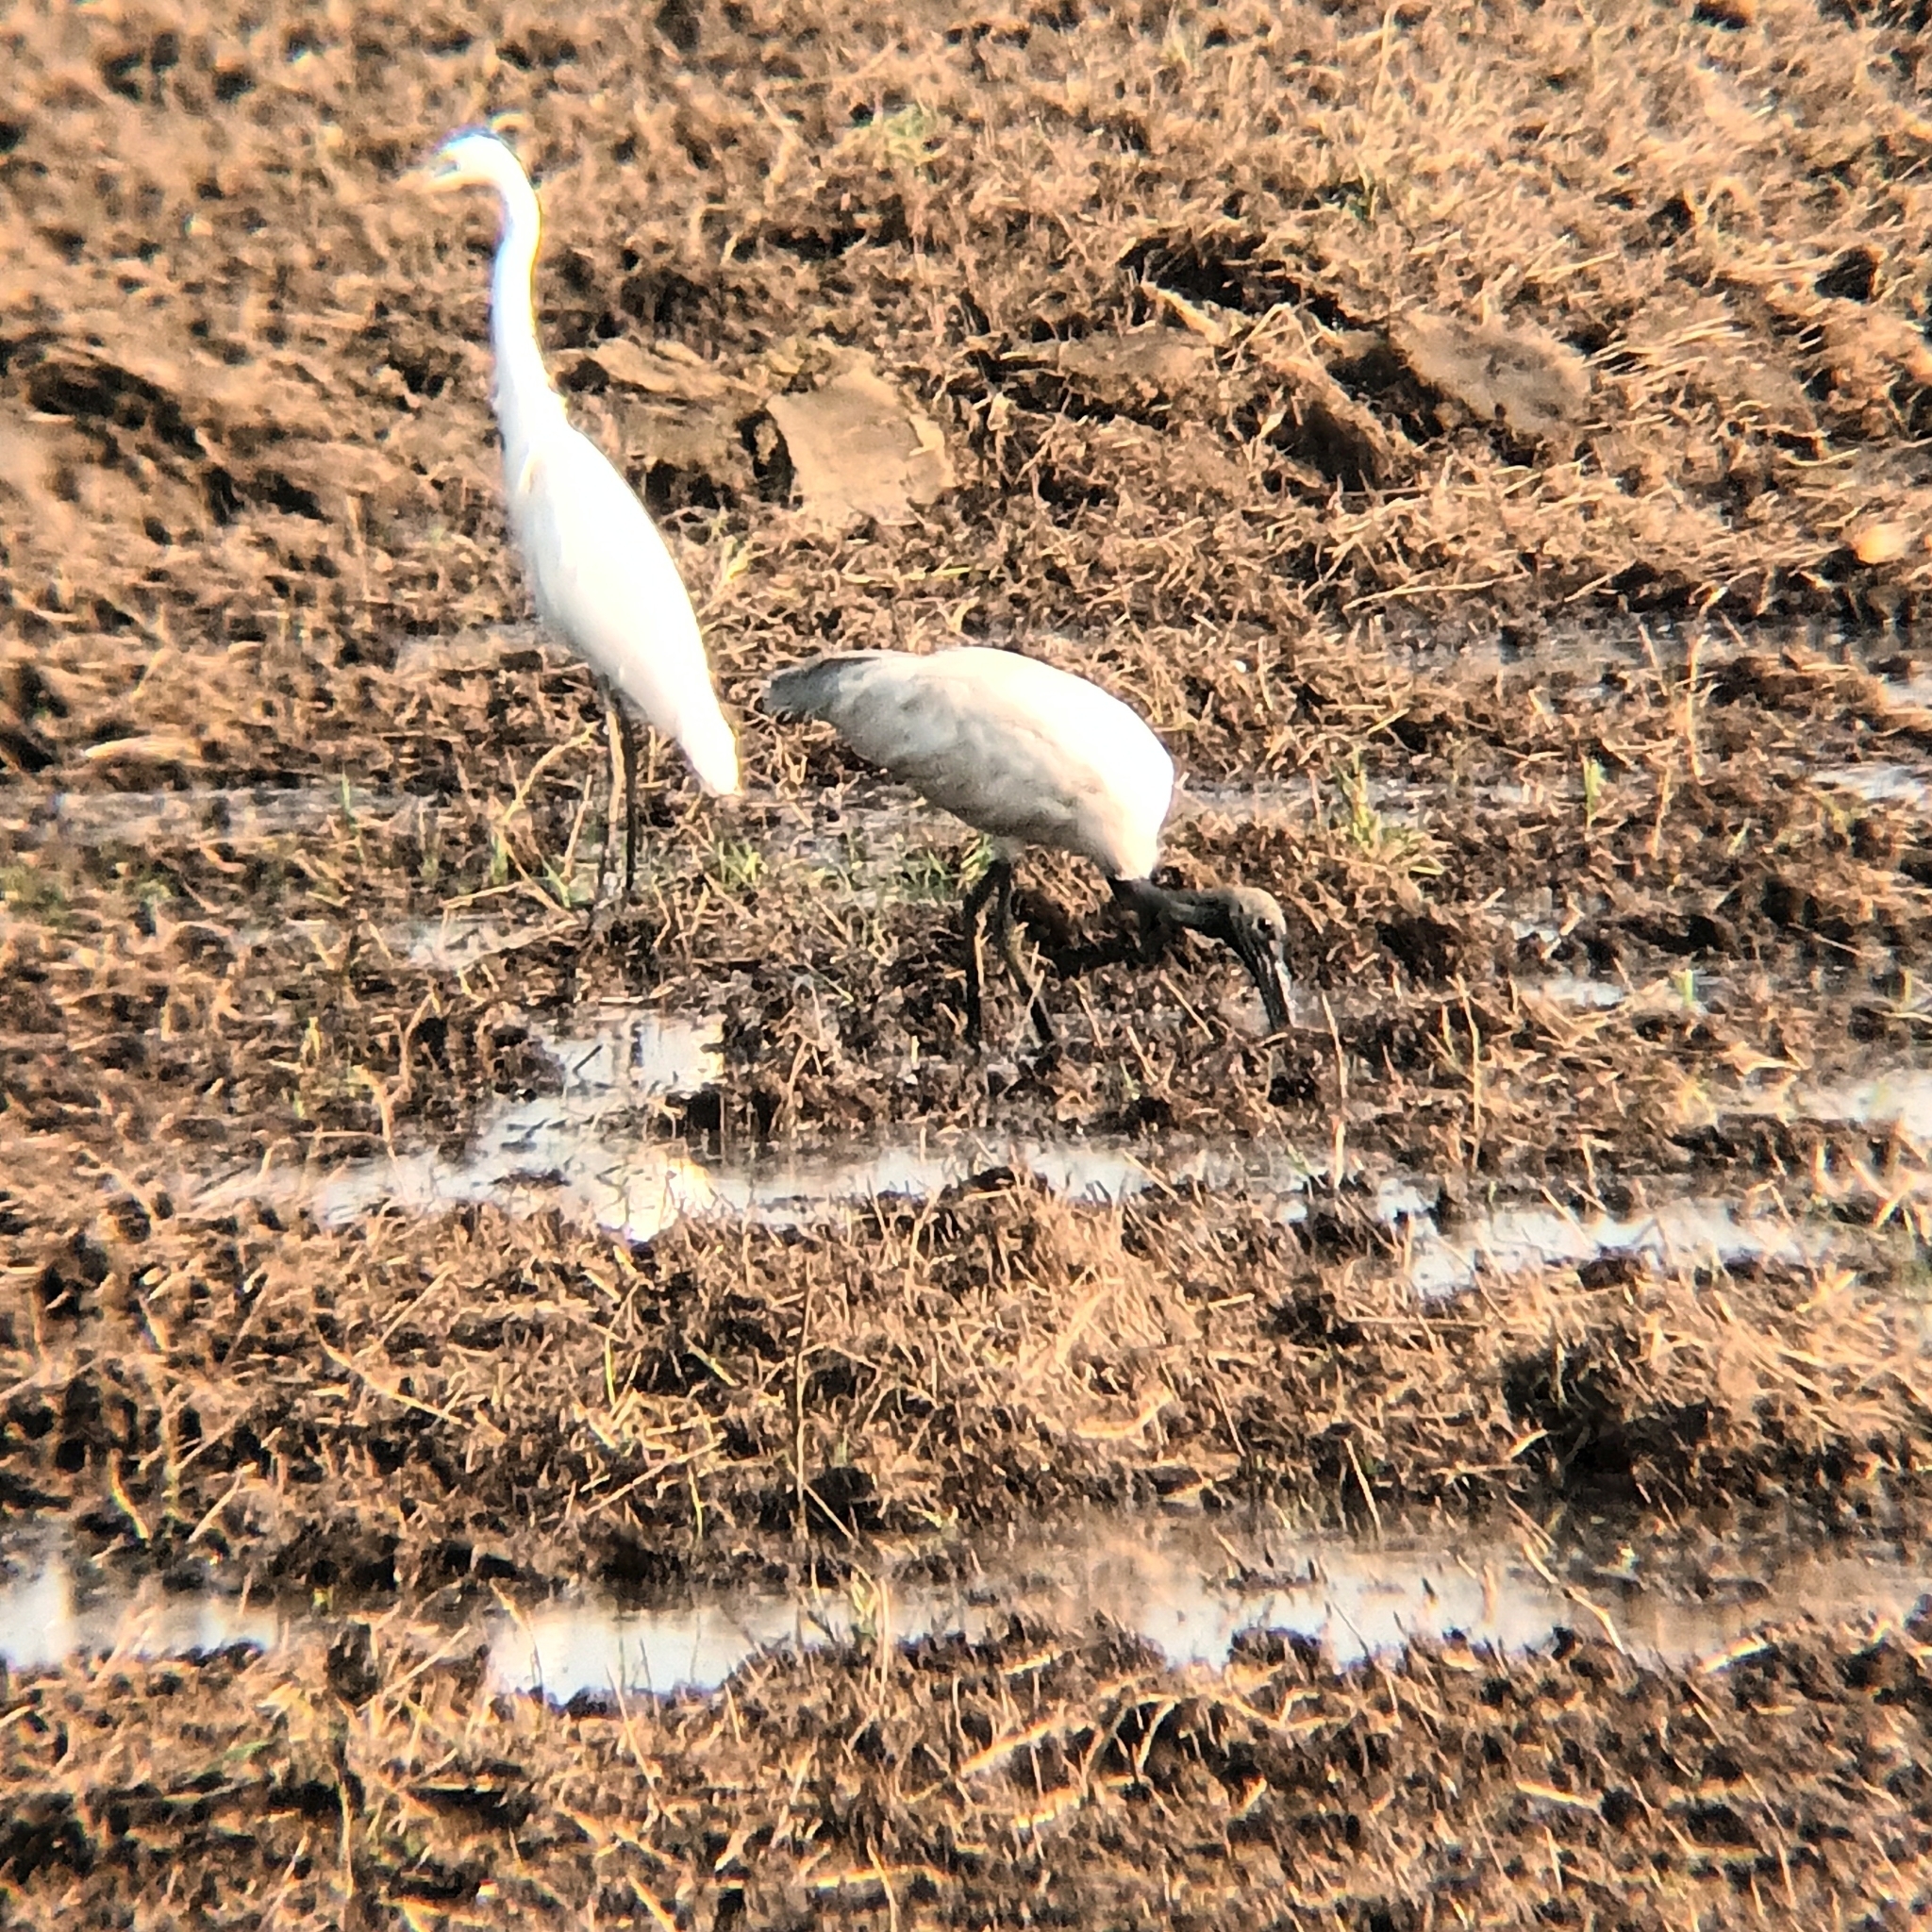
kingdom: Animalia
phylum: Chordata
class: Aves
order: Pelecaniformes
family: Threskiornithidae
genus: Threskiornis
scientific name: Threskiornis melanocephalus
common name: Black-headed ibis
